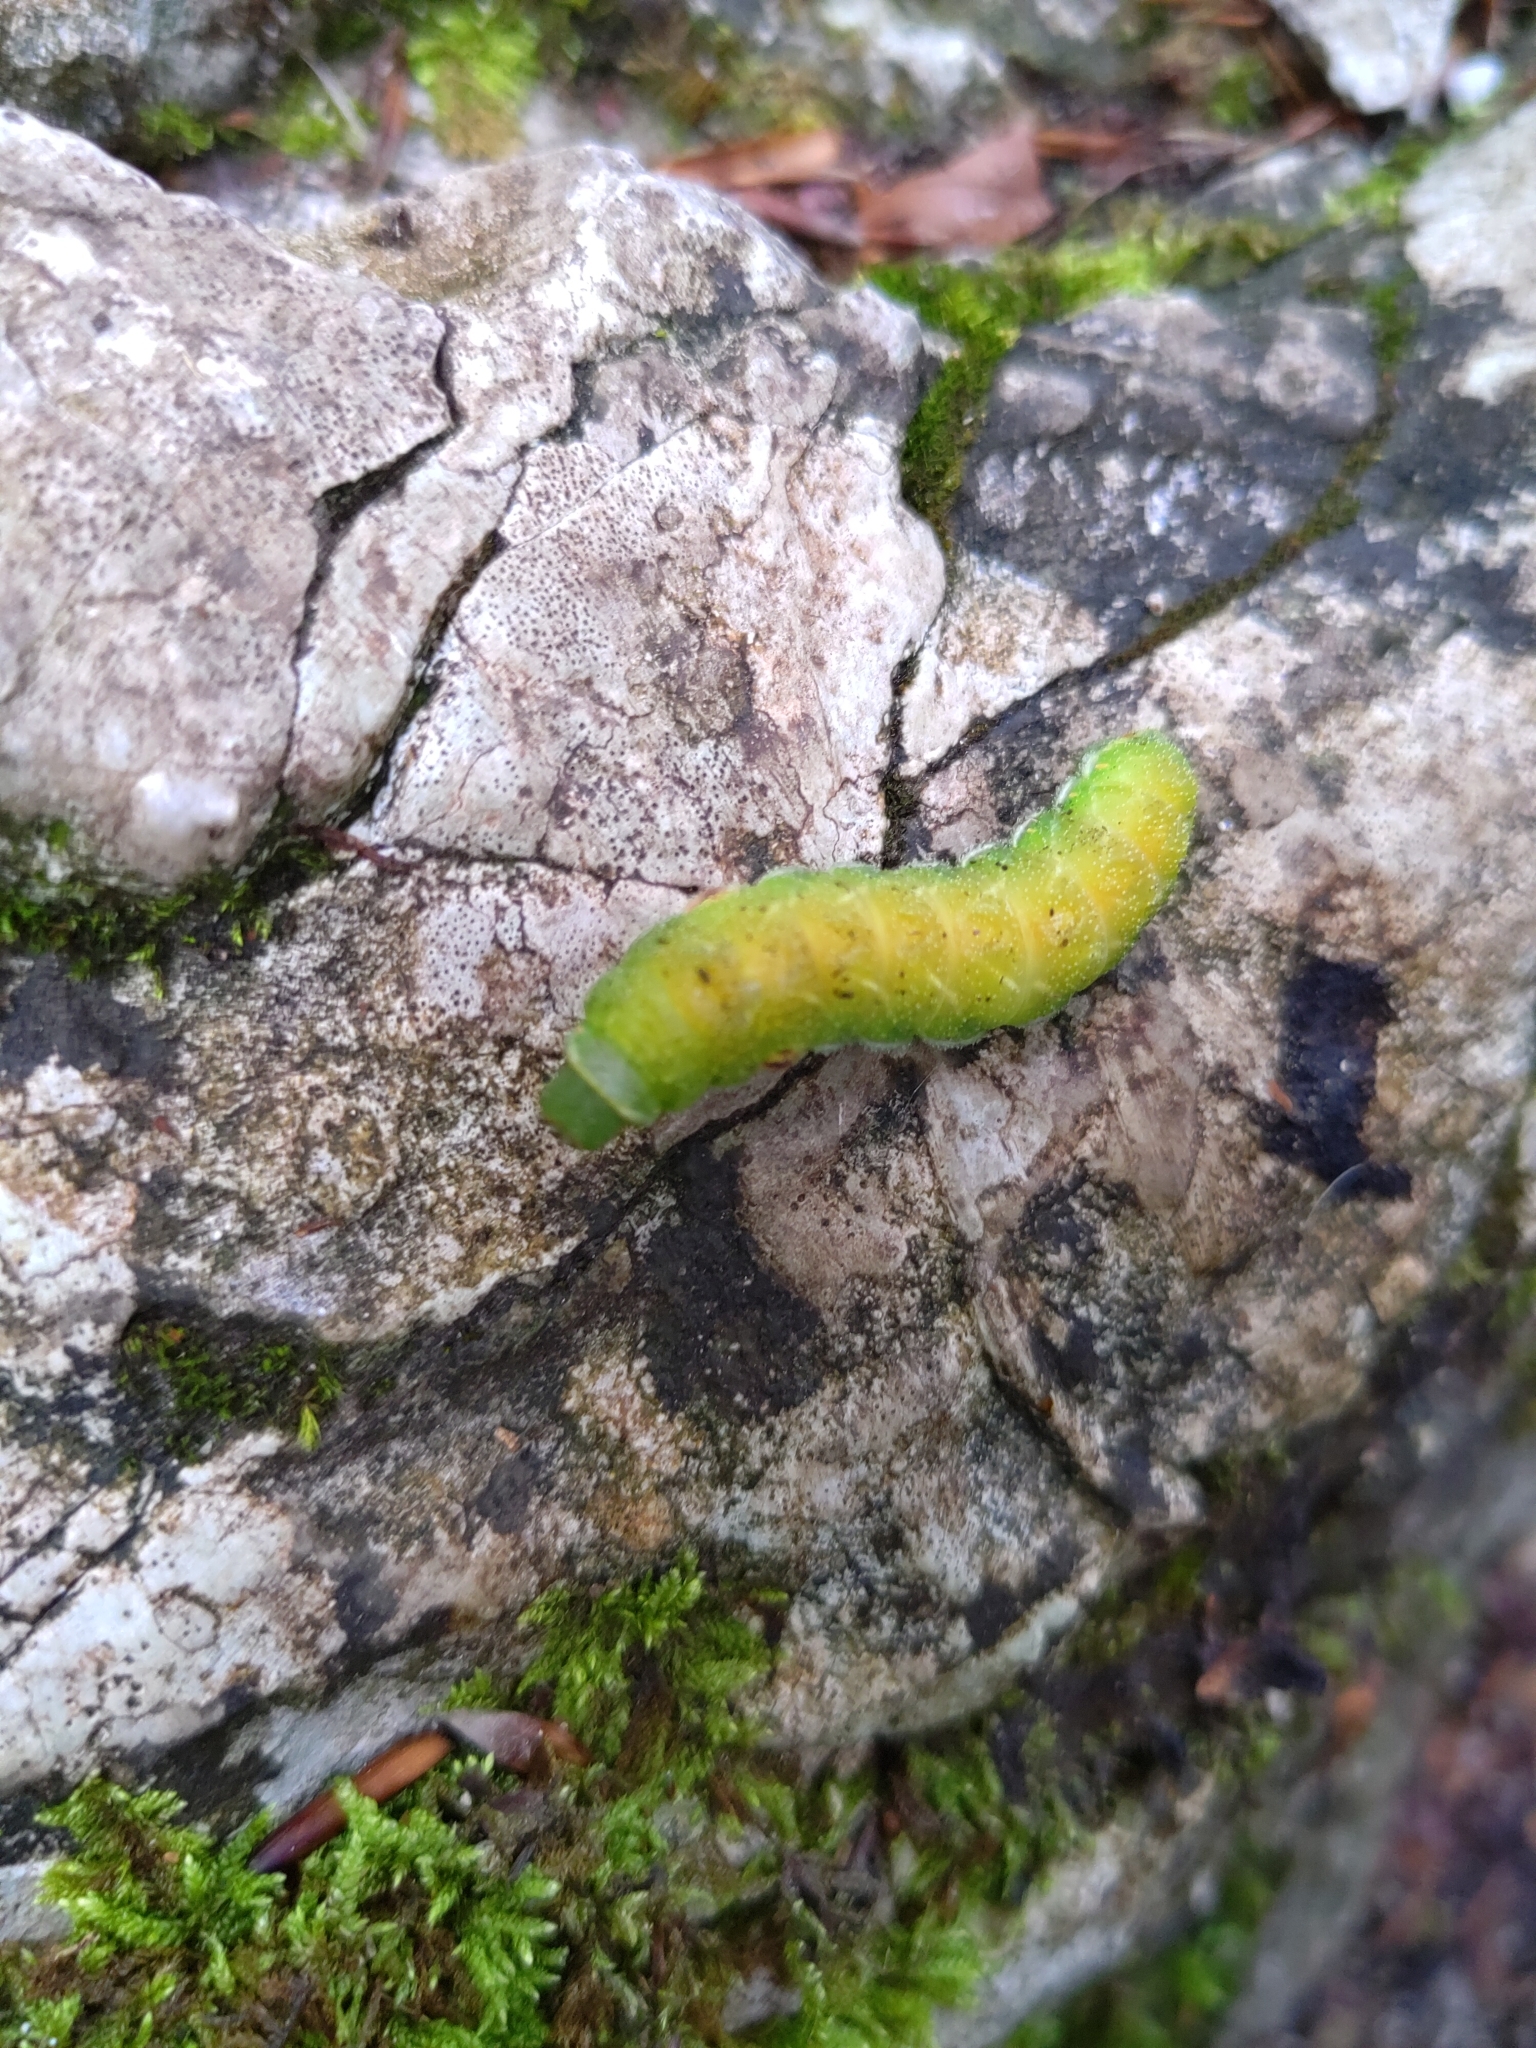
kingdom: Animalia
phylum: Arthropoda
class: Insecta
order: Lepidoptera
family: Saturniidae
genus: Aglia
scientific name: Aglia tau
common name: Tau emperor
